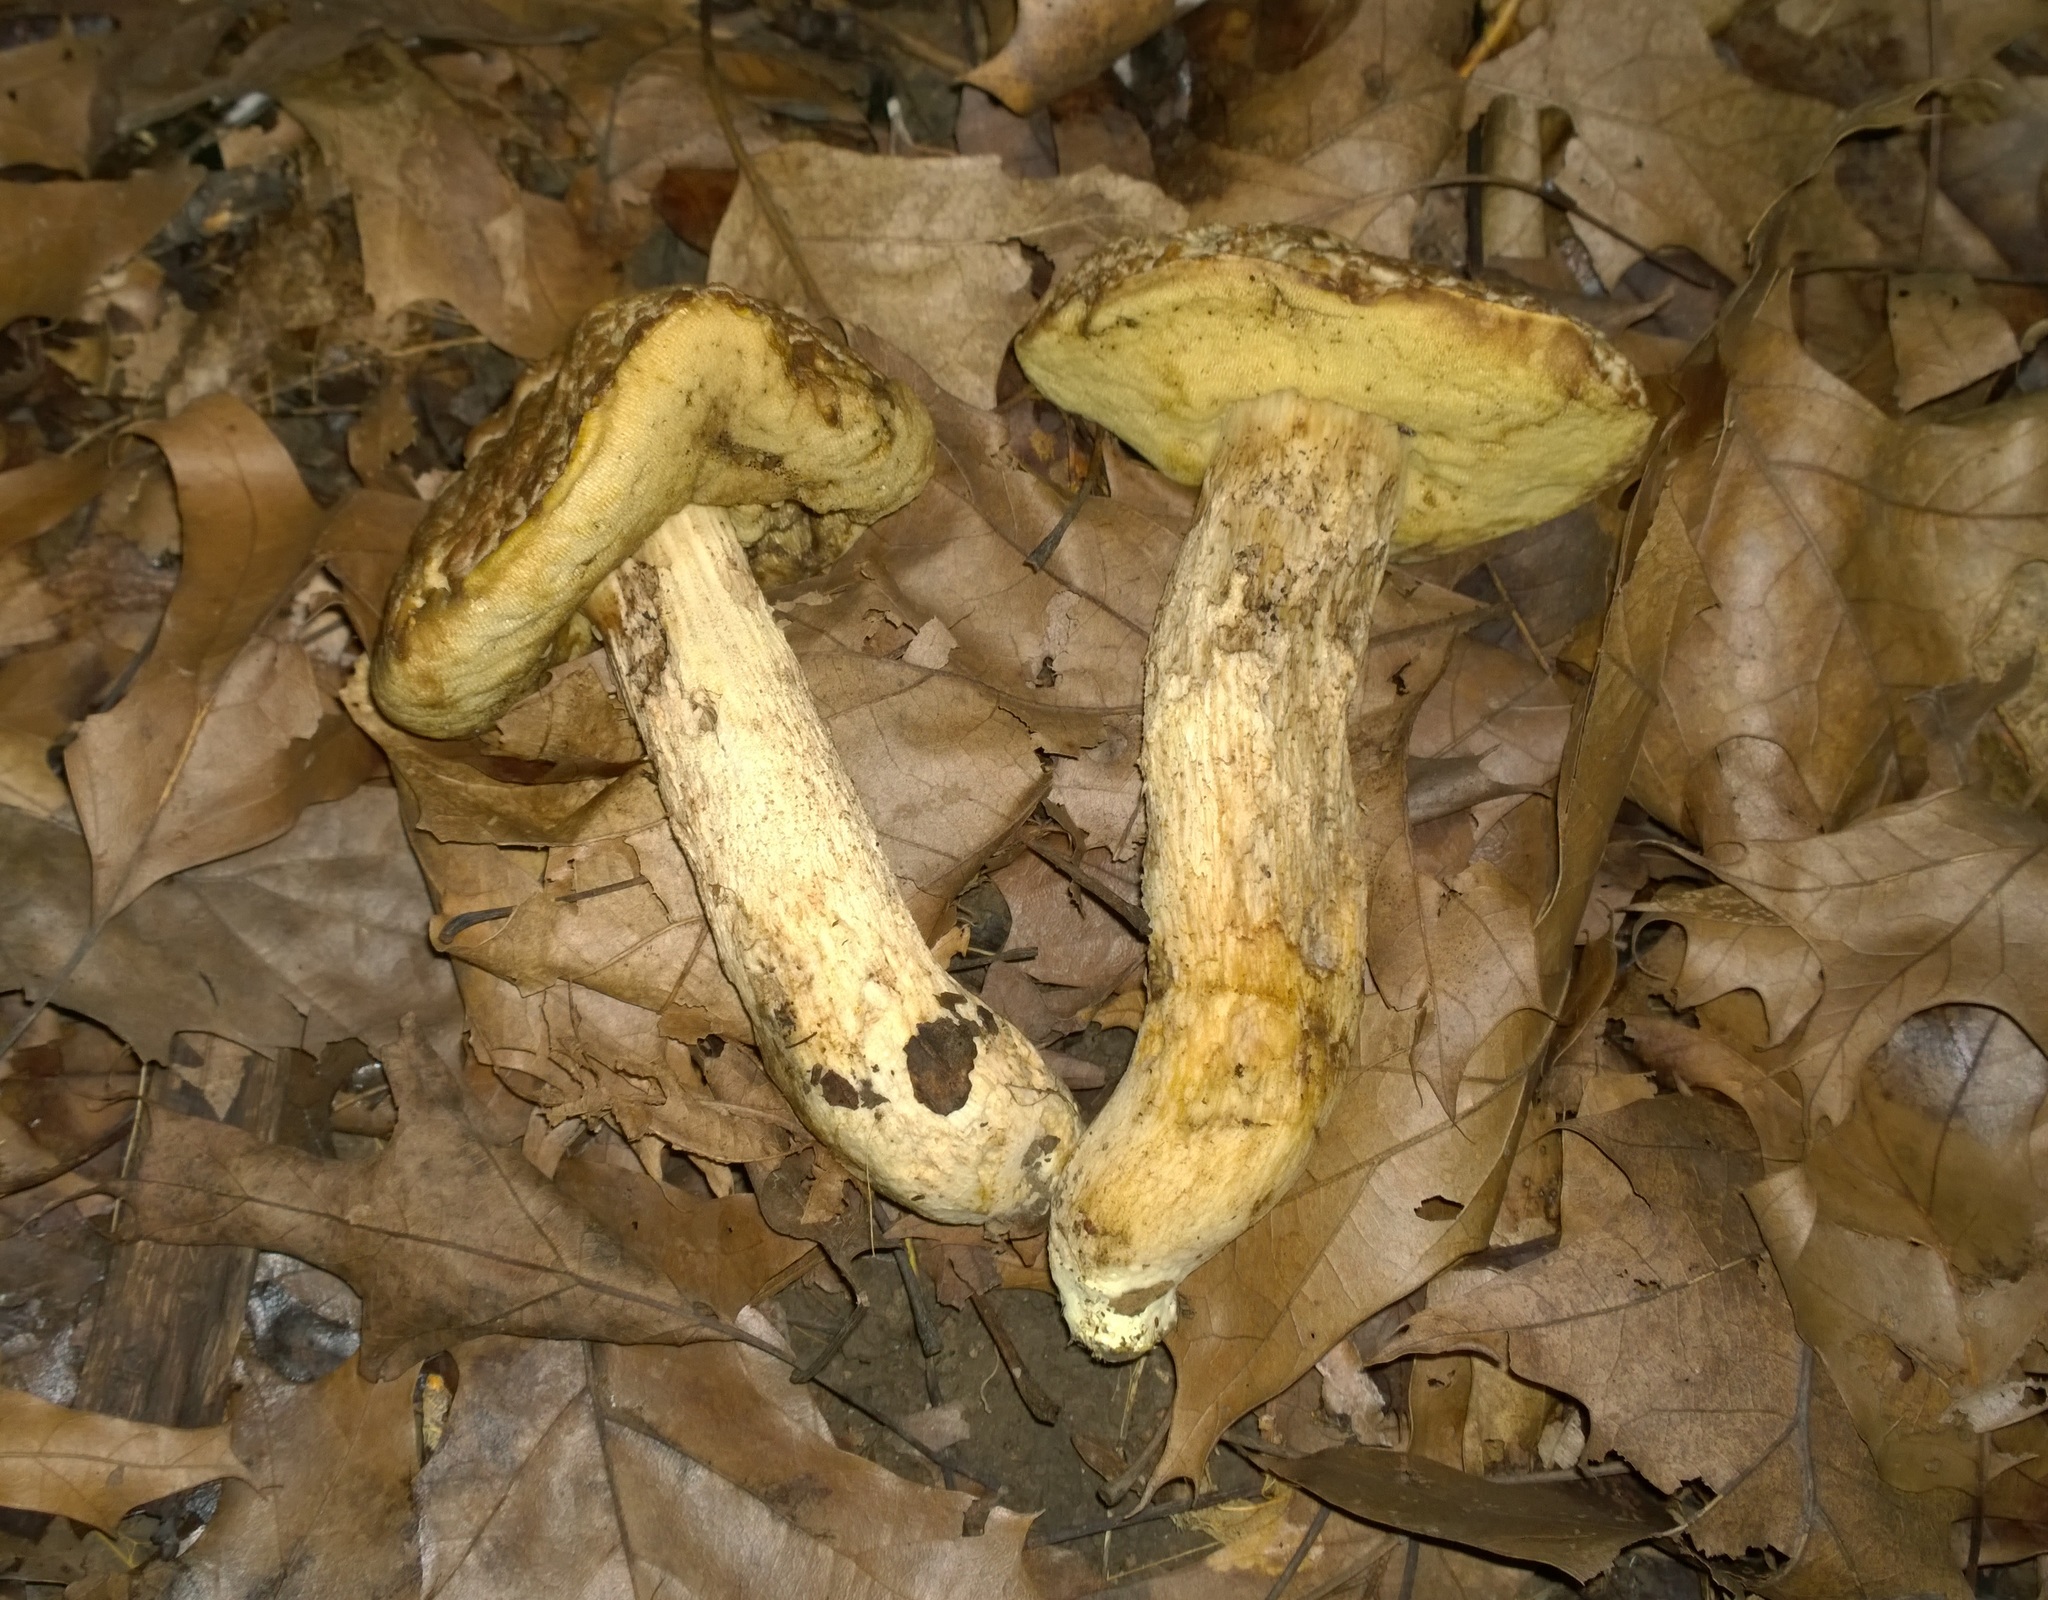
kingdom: Fungi
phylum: Basidiomycota
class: Agaricomycetes
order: Boletales
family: Boletaceae
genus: Leccinellum
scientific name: Leccinellum crocipodium
